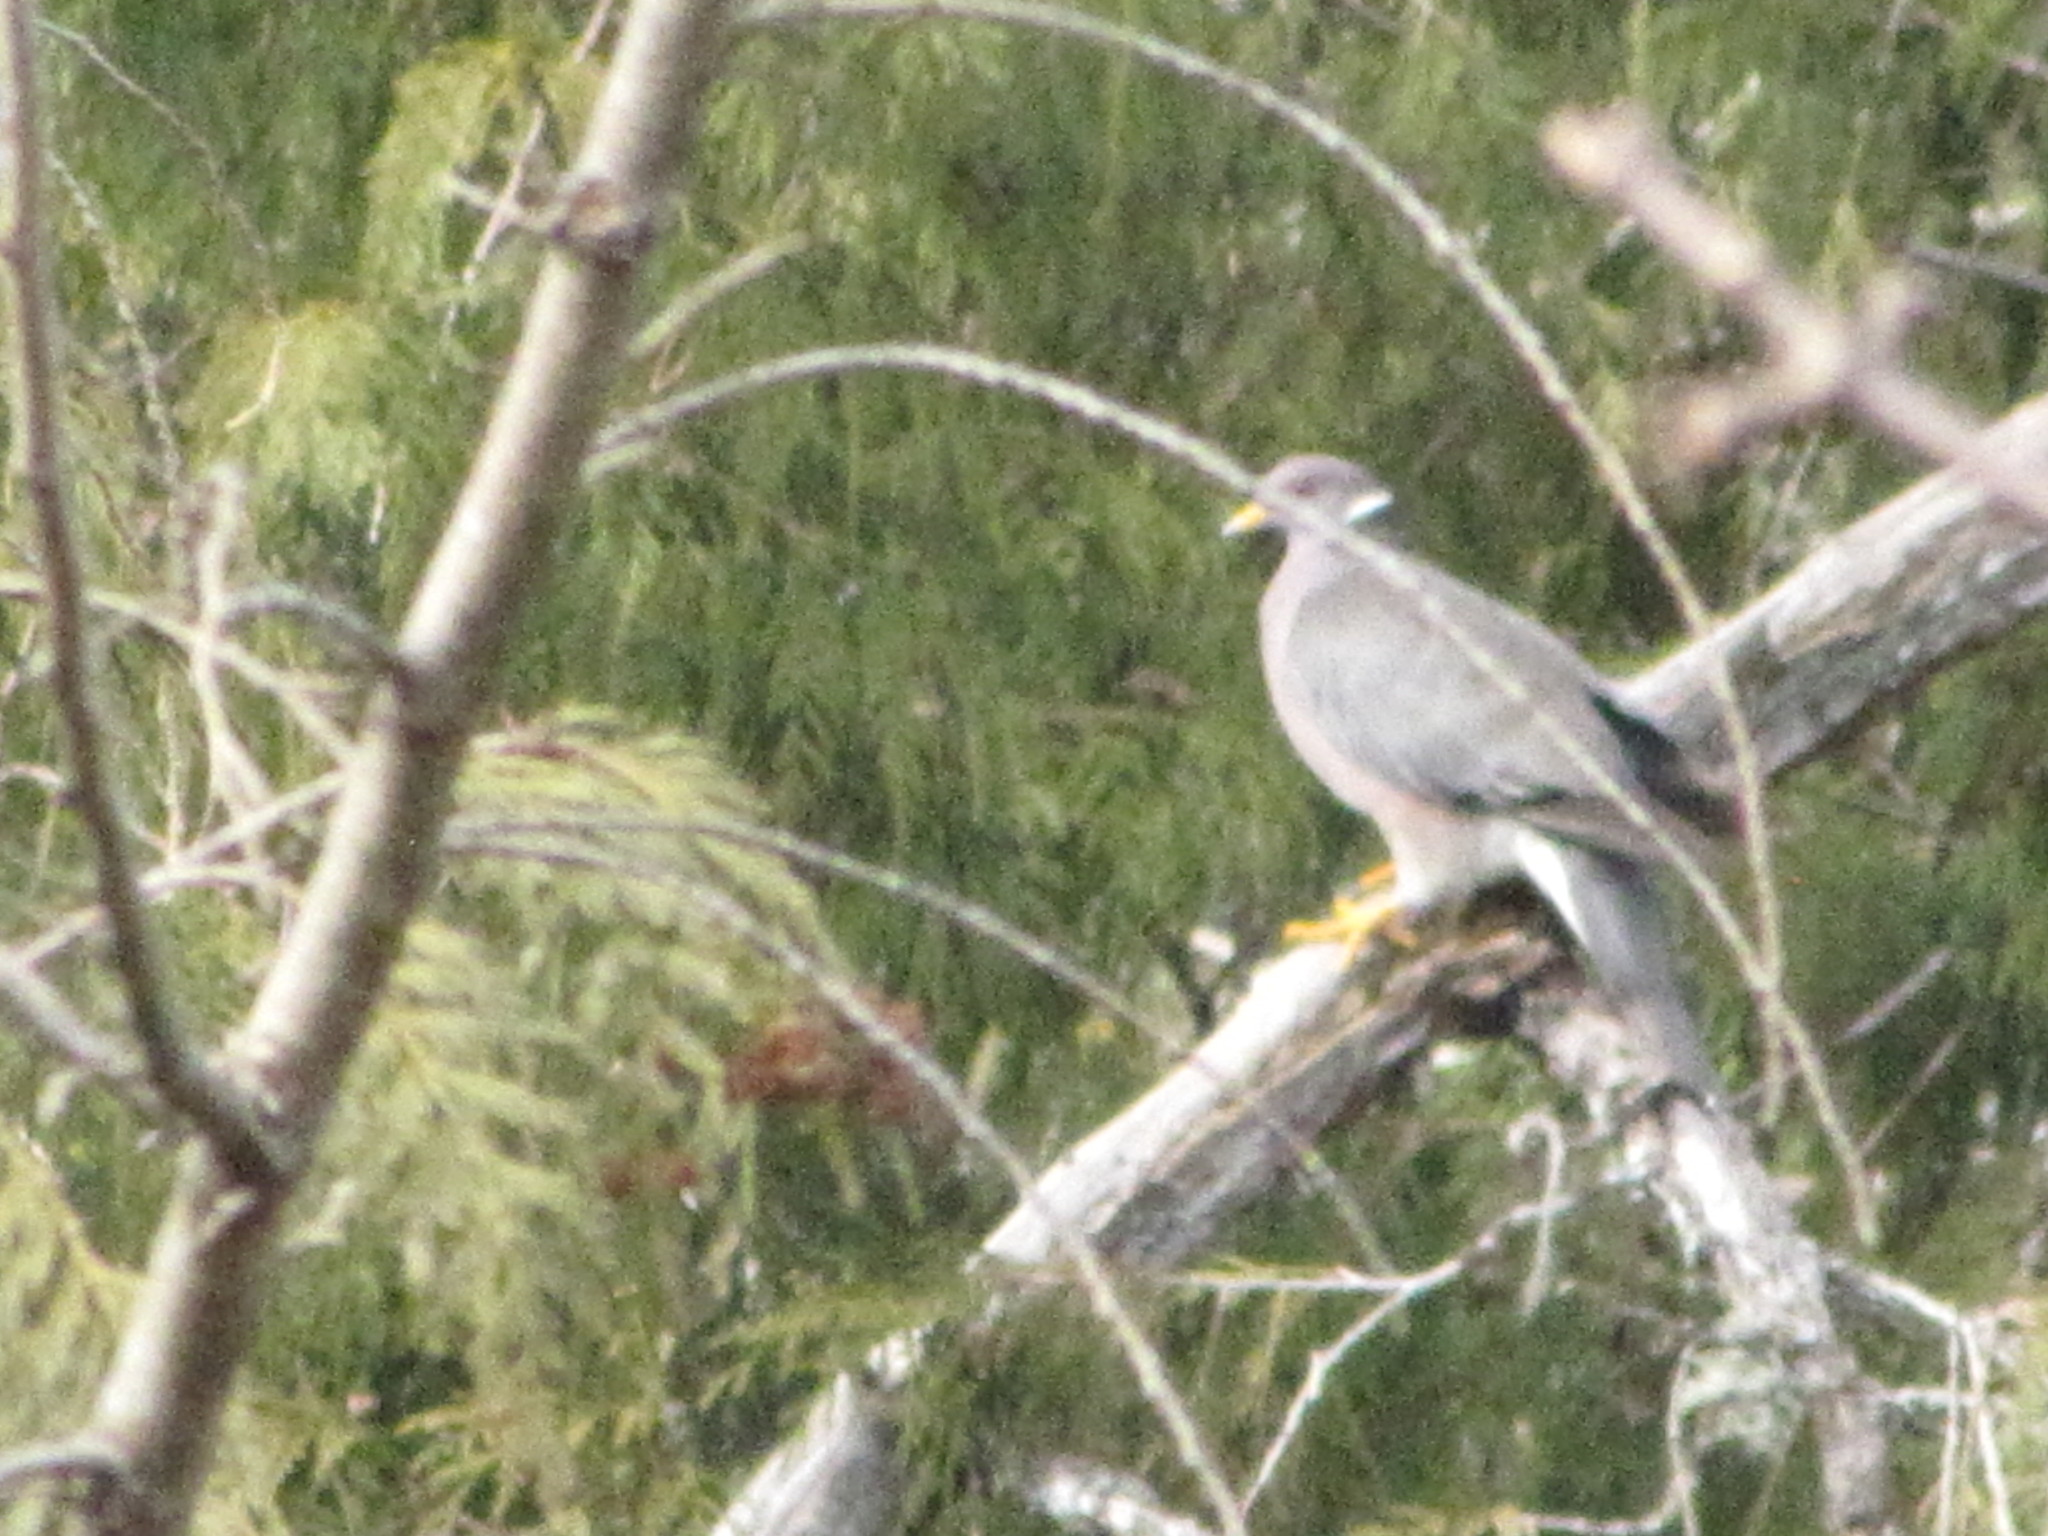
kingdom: Animalia
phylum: Chordata
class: Aves
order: Columbiformes
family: Columbidae
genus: Patagioenas
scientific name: Patagioenas fasciata
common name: Band-tailed pigeon
